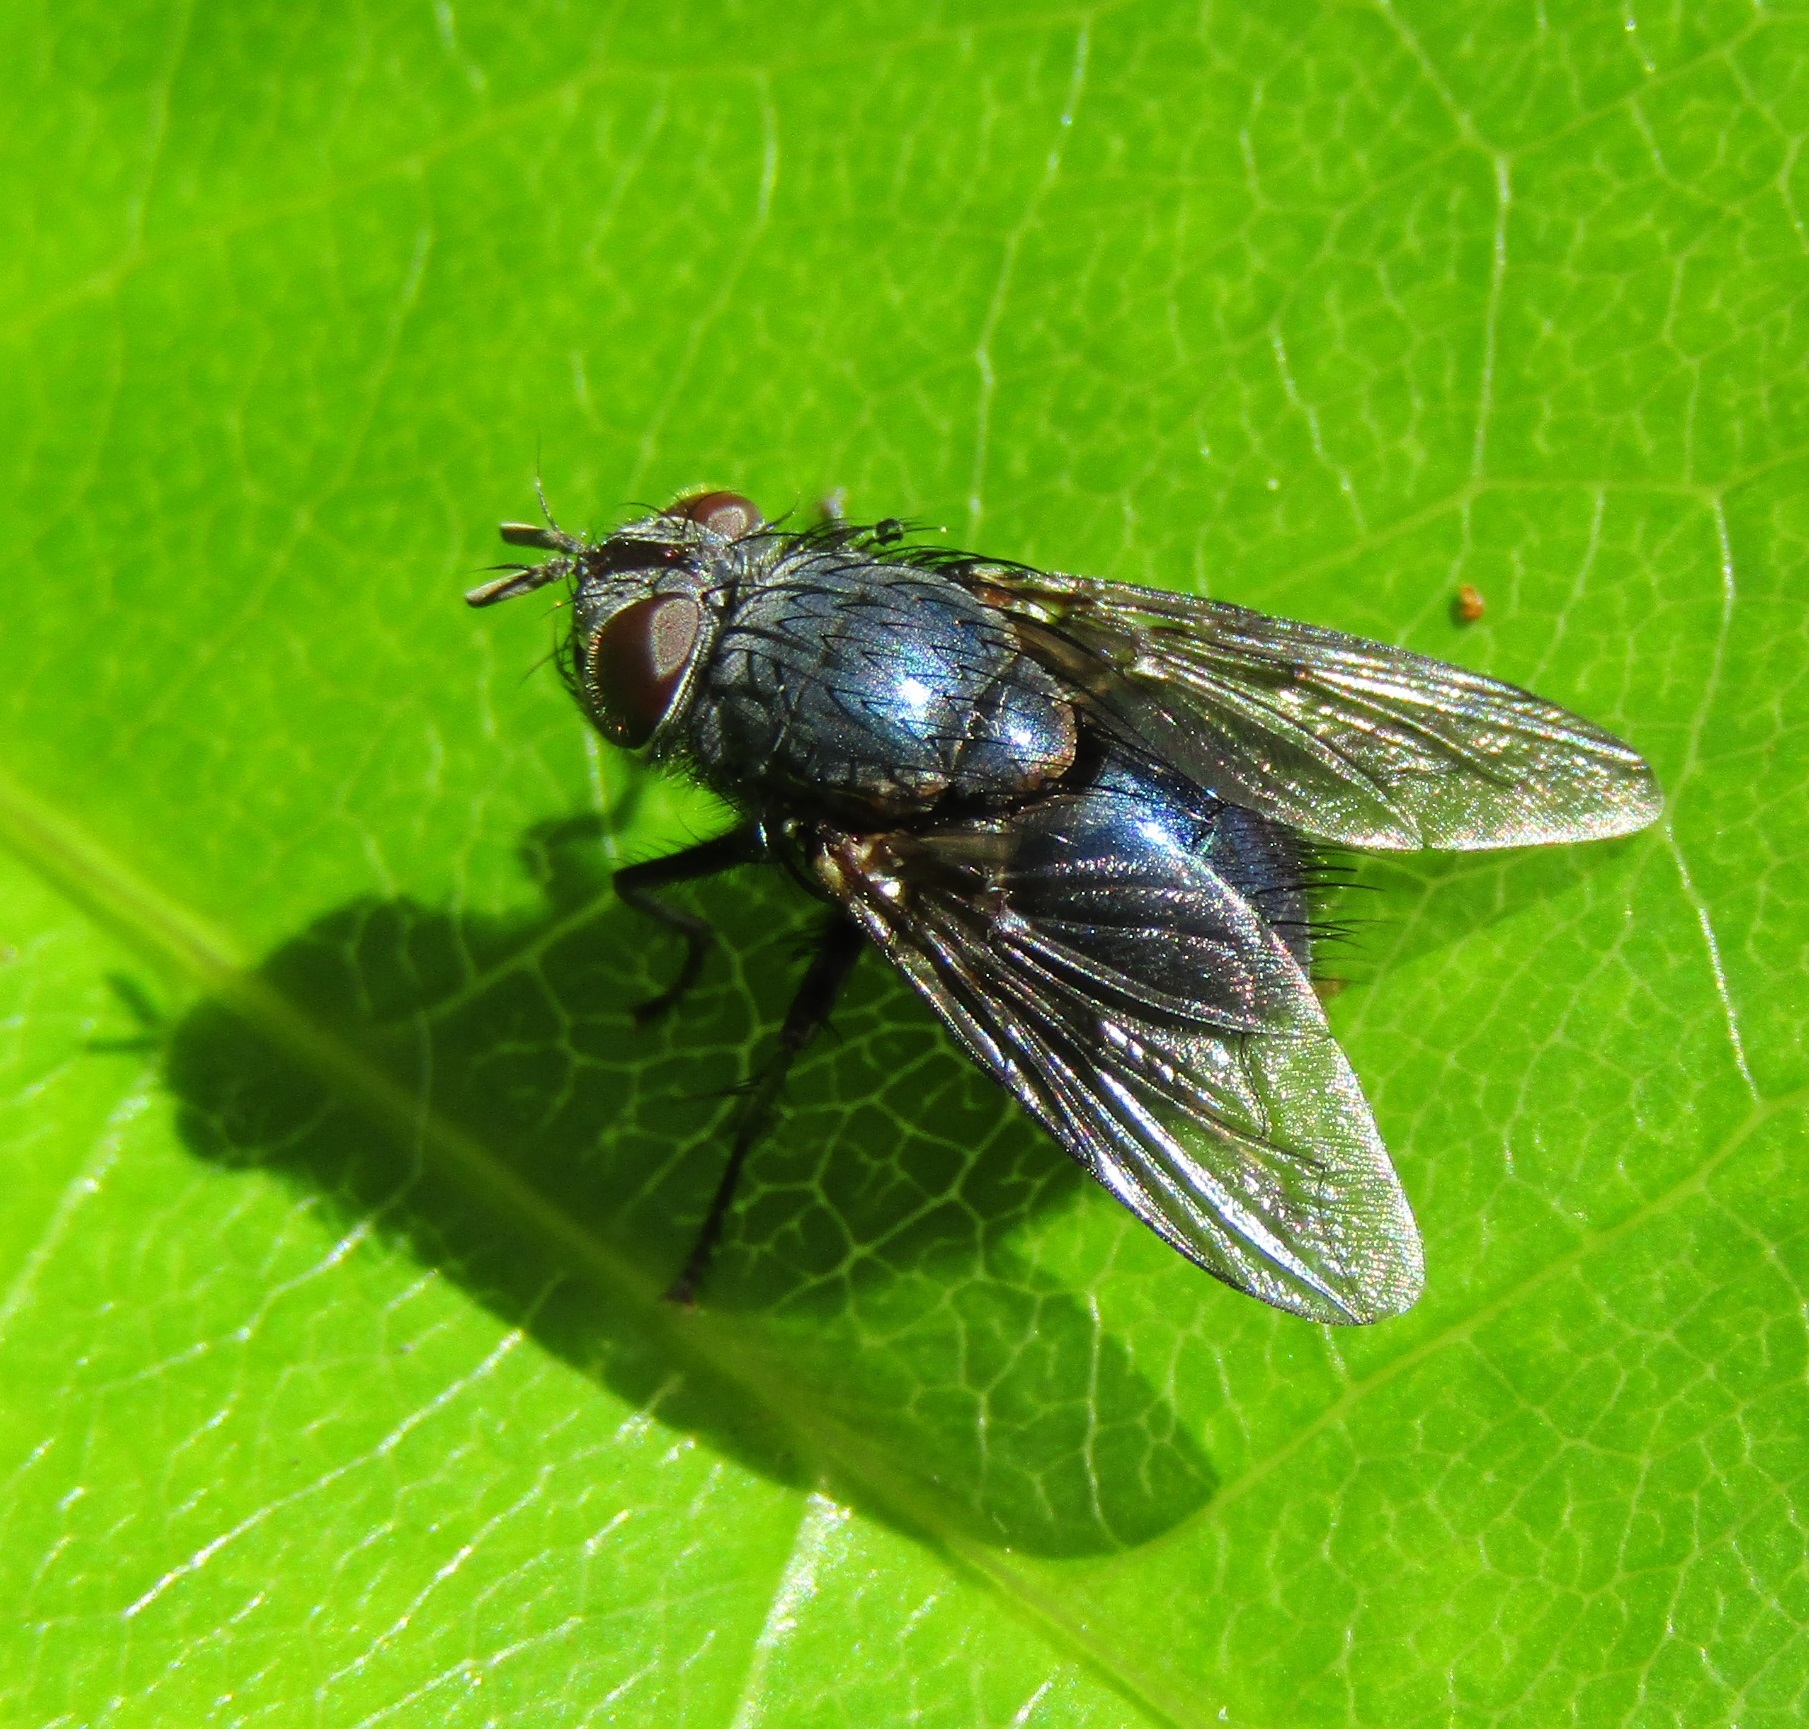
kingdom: Animalia
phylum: Arthropoda
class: Insecta
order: Diptera
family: Tachinidae
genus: Pales
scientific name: Pales marginata
